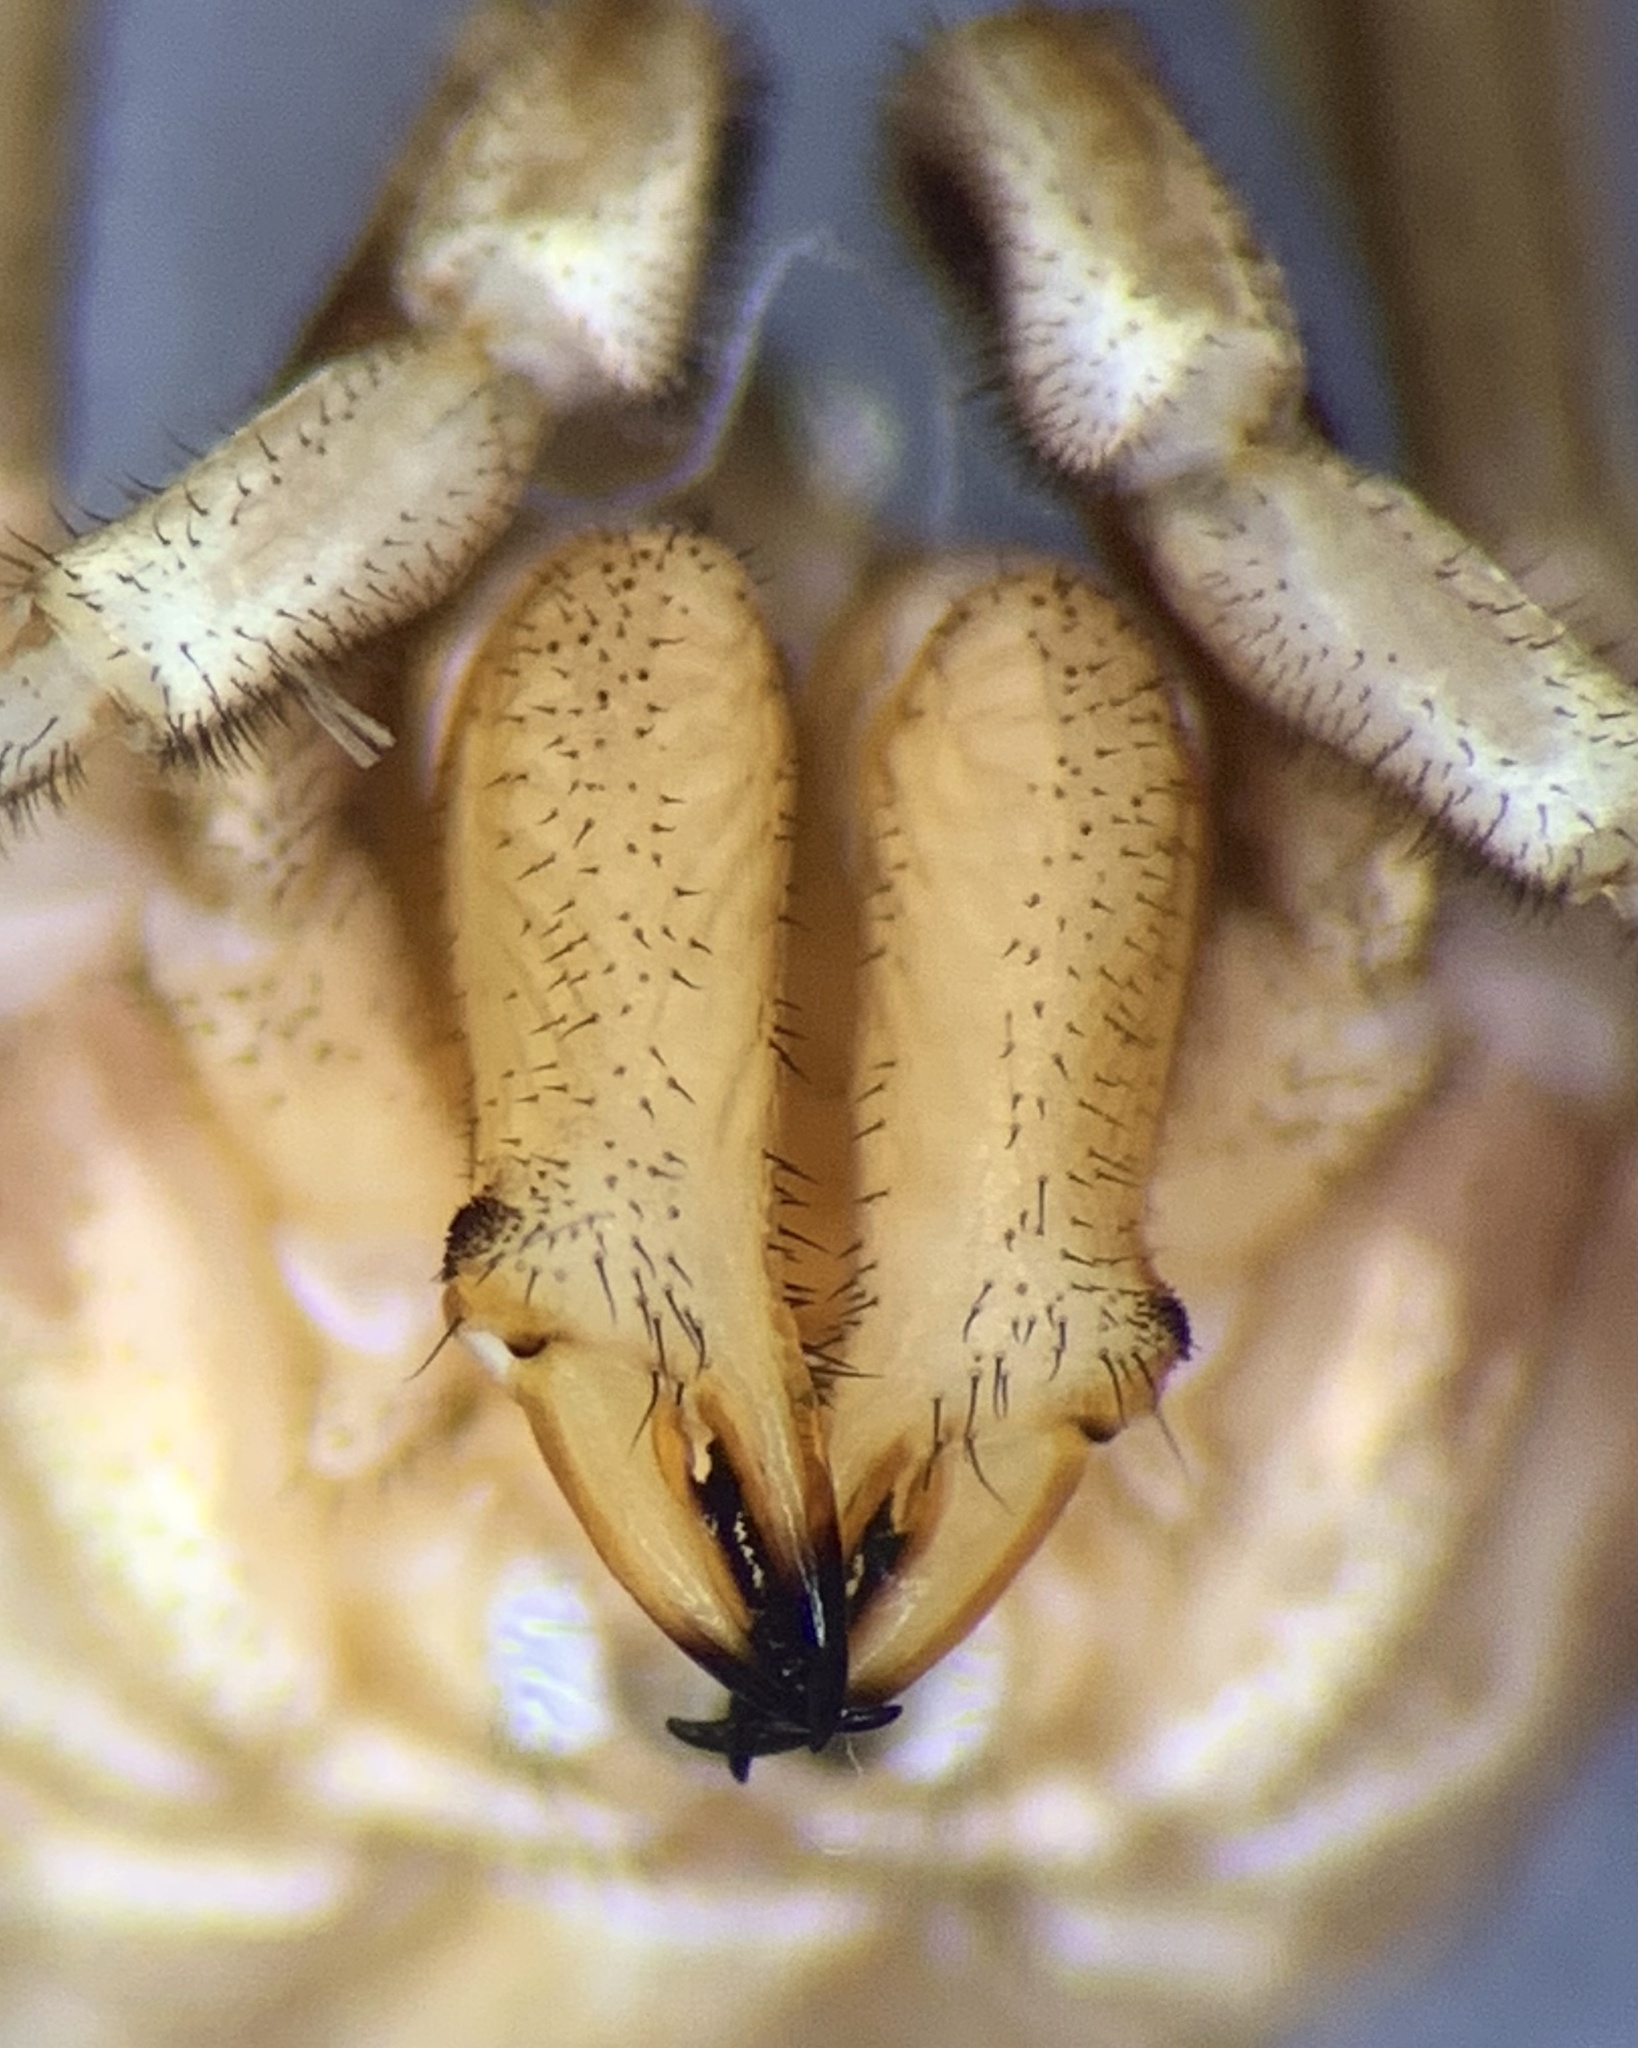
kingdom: Animalia
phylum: Arthropoda
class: Arachnida
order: Opiliones
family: Phalangiidae
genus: Dasylobus
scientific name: Dasylobus graniferus
